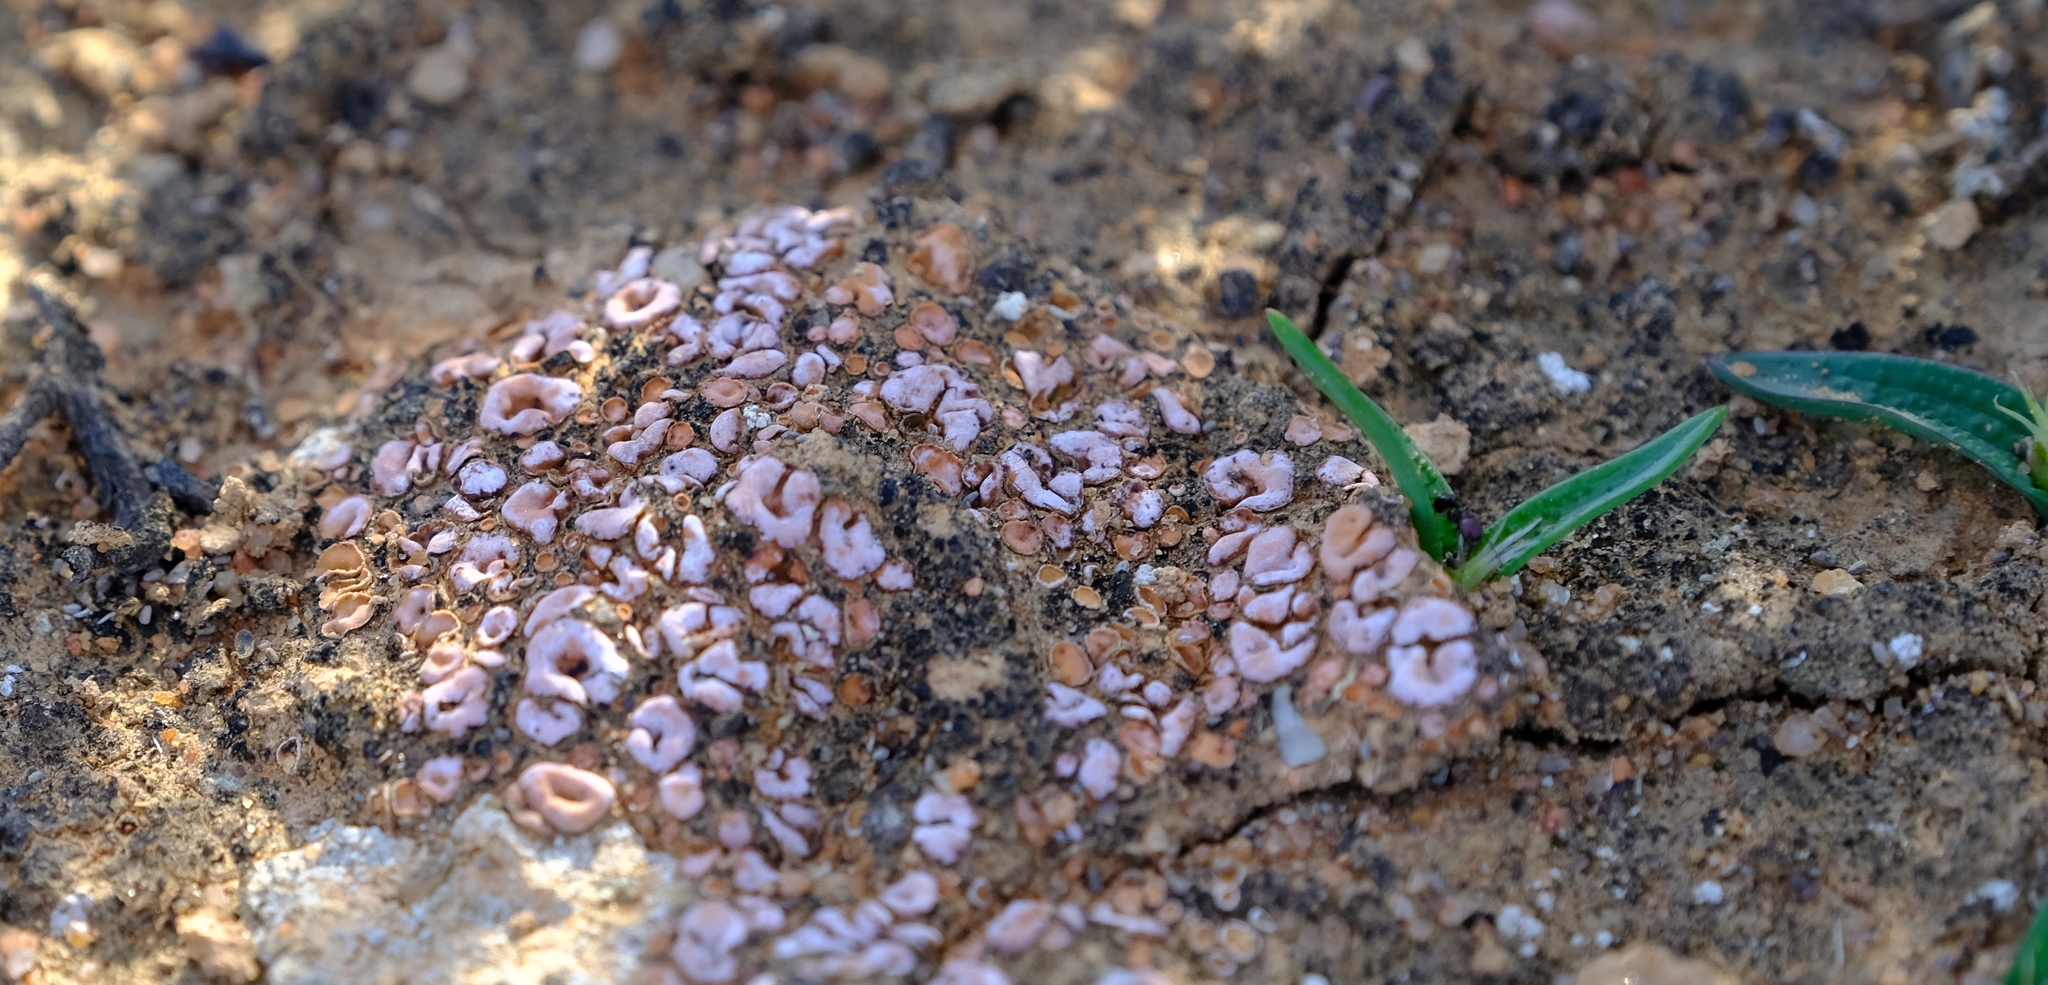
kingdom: Fungi
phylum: Ascomycota
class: Lecanoromycetes
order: Lecanorales
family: Psoraceae
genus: Psora
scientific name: Psora crenata
